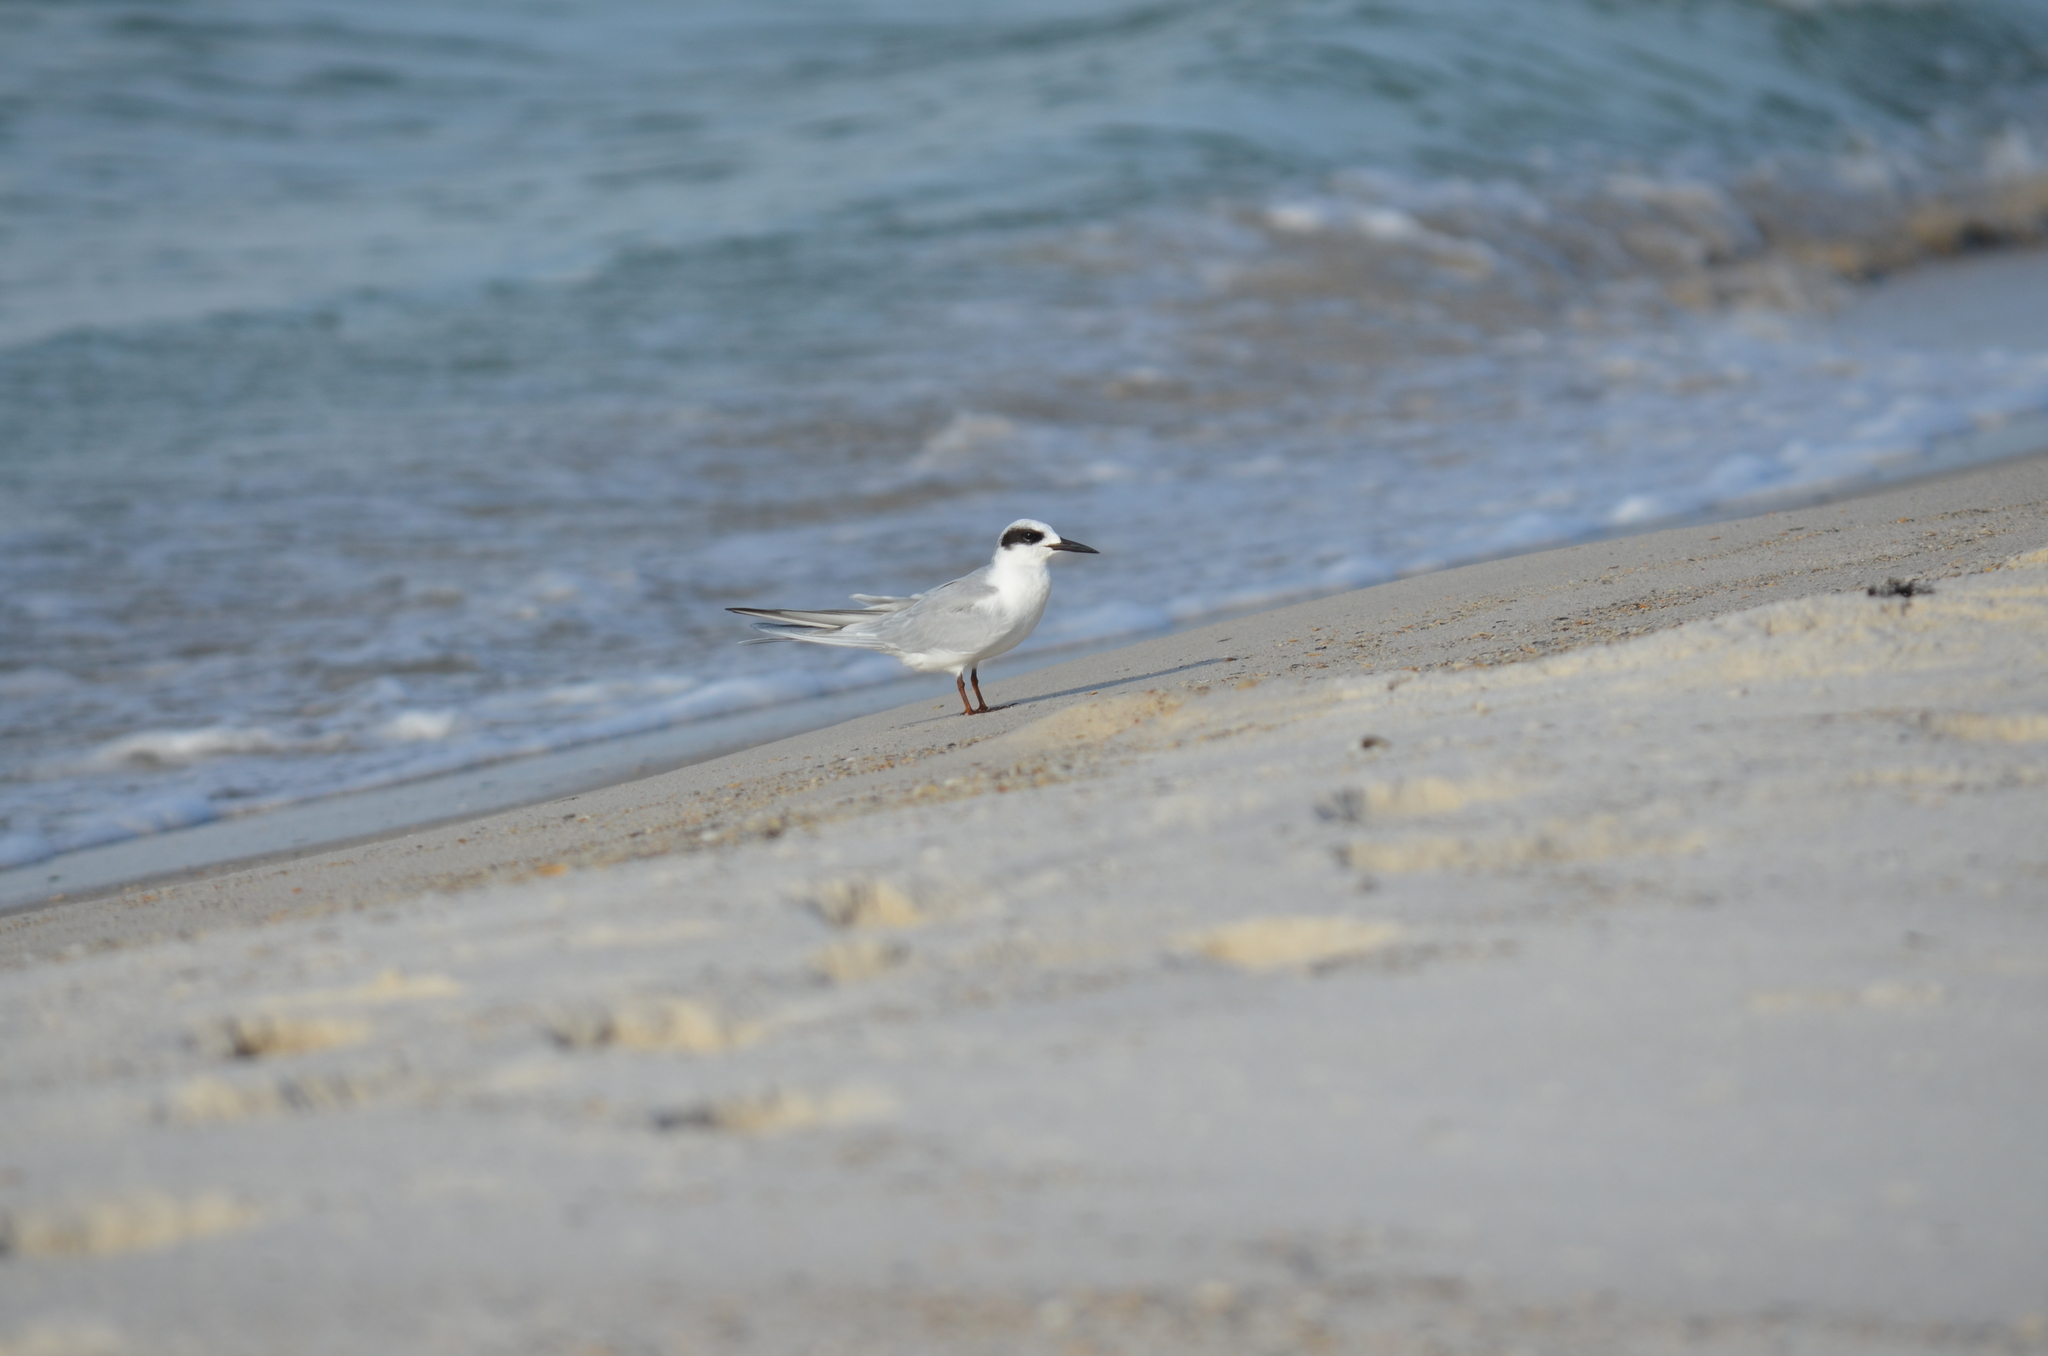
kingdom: Animalia
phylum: Chordata
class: Aves
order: Charadriiformes
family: Laridae
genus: Sterna
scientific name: Sterna forsteri
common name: Forster's tern
